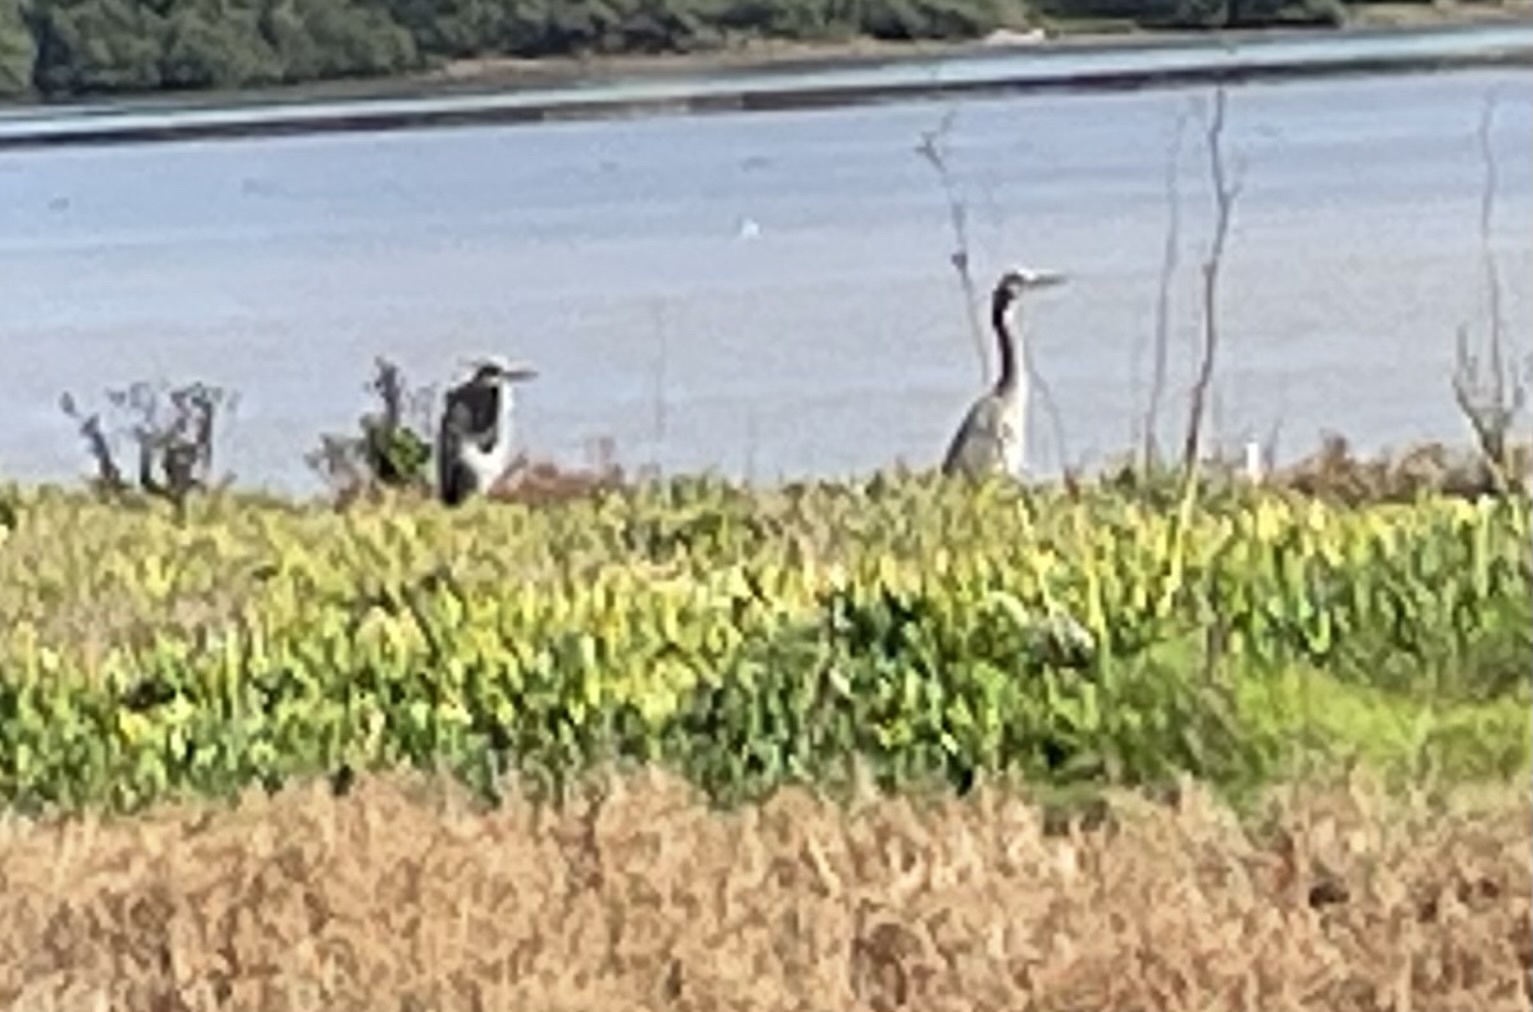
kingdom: Animalia
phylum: Chordata
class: Aves
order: Pelecaniformes
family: Ardeidae
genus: Ardea
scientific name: Ardea herodias
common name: Great blue heron
